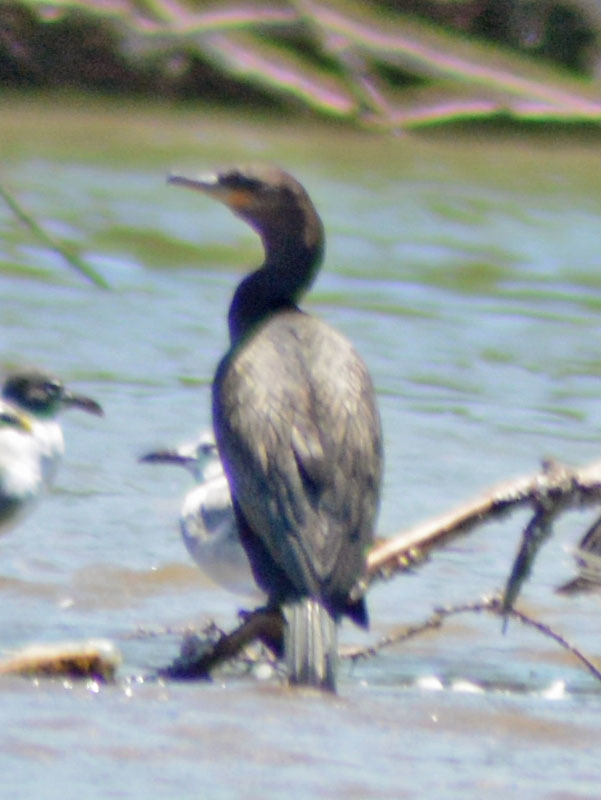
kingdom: Animalia
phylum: Chordata
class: Aves
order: Suliformes
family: Phalacrocoracidae
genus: Phalacrocorax
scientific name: Phalacrocorax brasilianus
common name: Neotropic cormorant
